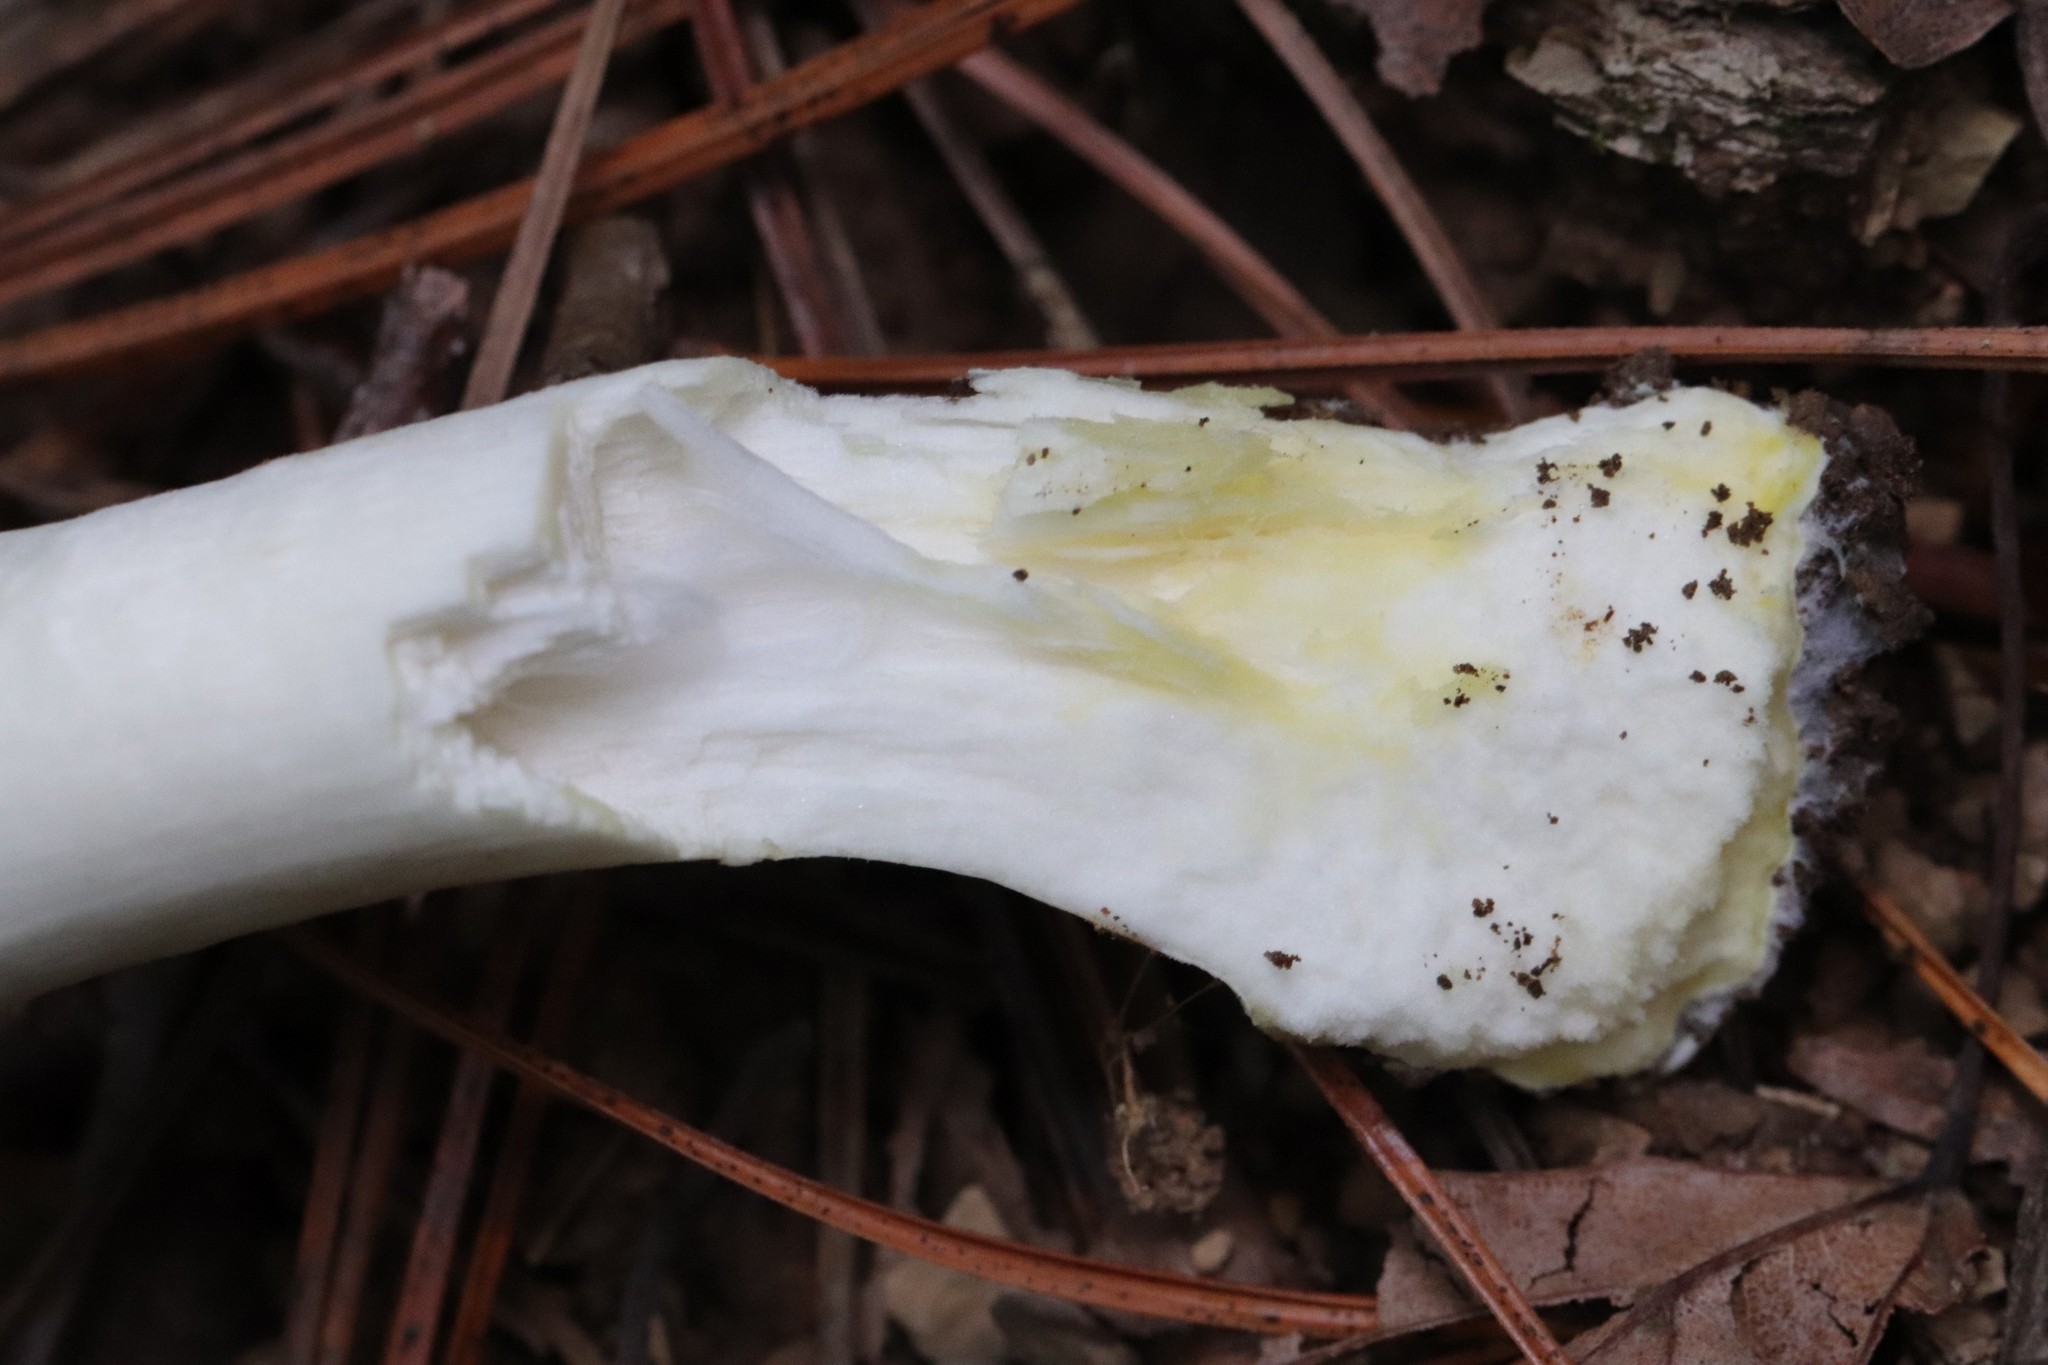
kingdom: Fungi
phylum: Basidiomycota
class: Agaricomycetes
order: Agaricales
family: Agaricaceae
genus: Agaricus
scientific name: Agaricus moelleri
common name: Inky mushroom
